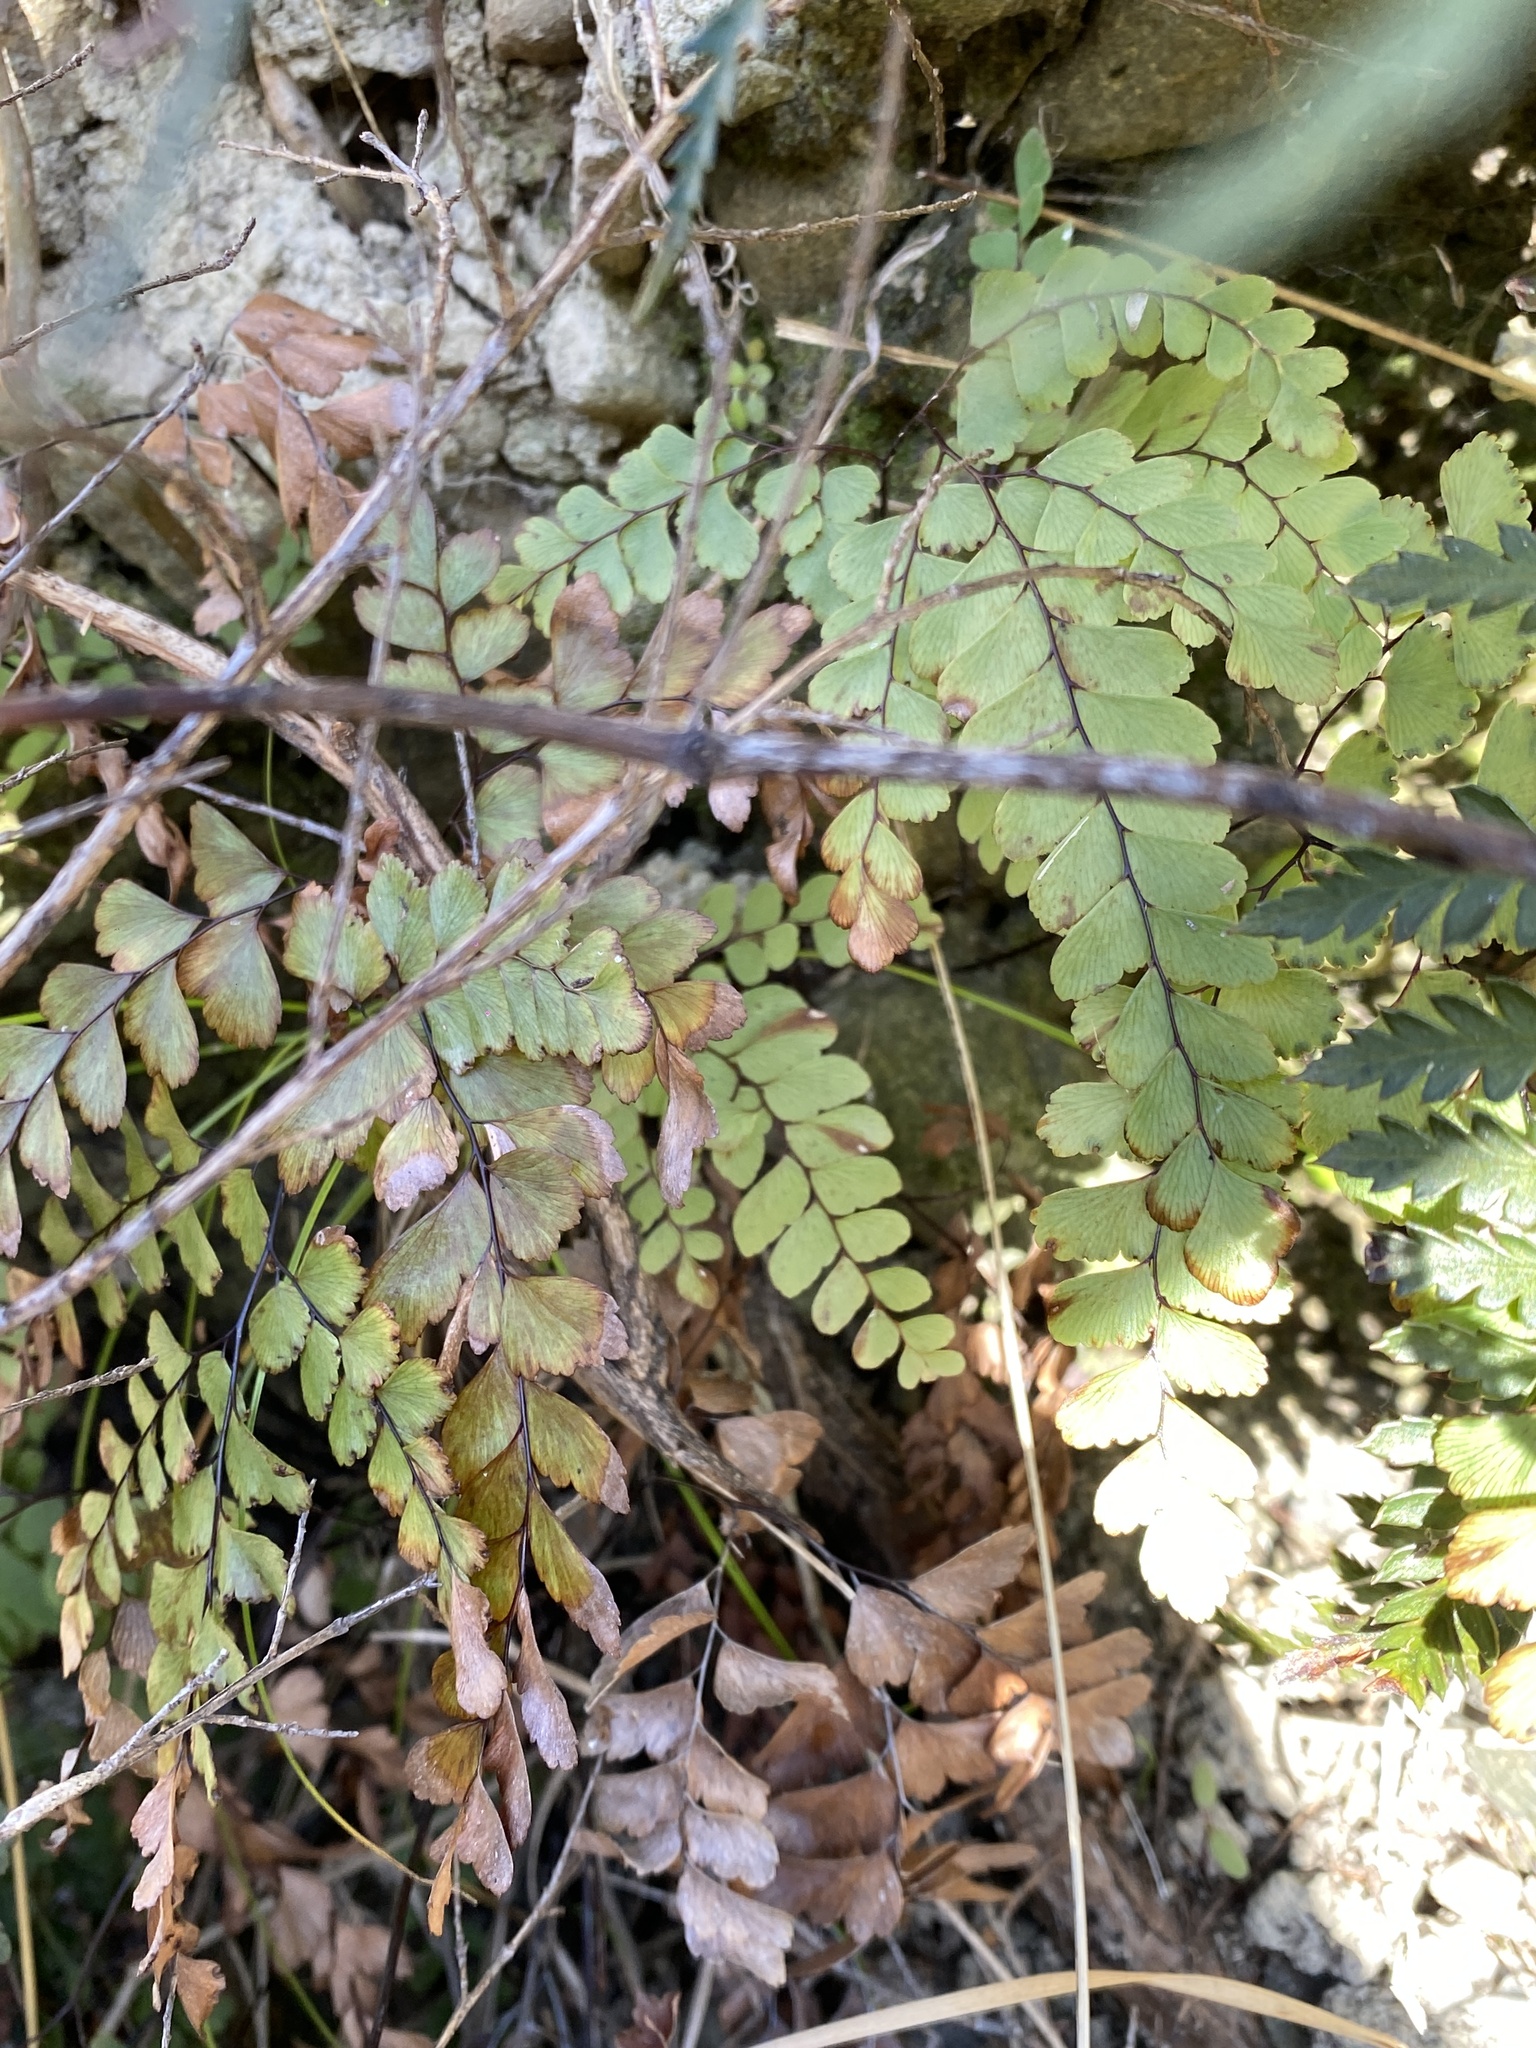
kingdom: Plantae
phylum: Tracheophyta
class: Polypodiopsida
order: Polypodiales
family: Pteridaceae
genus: Adiantum
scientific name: Adiantum cunninghamii
